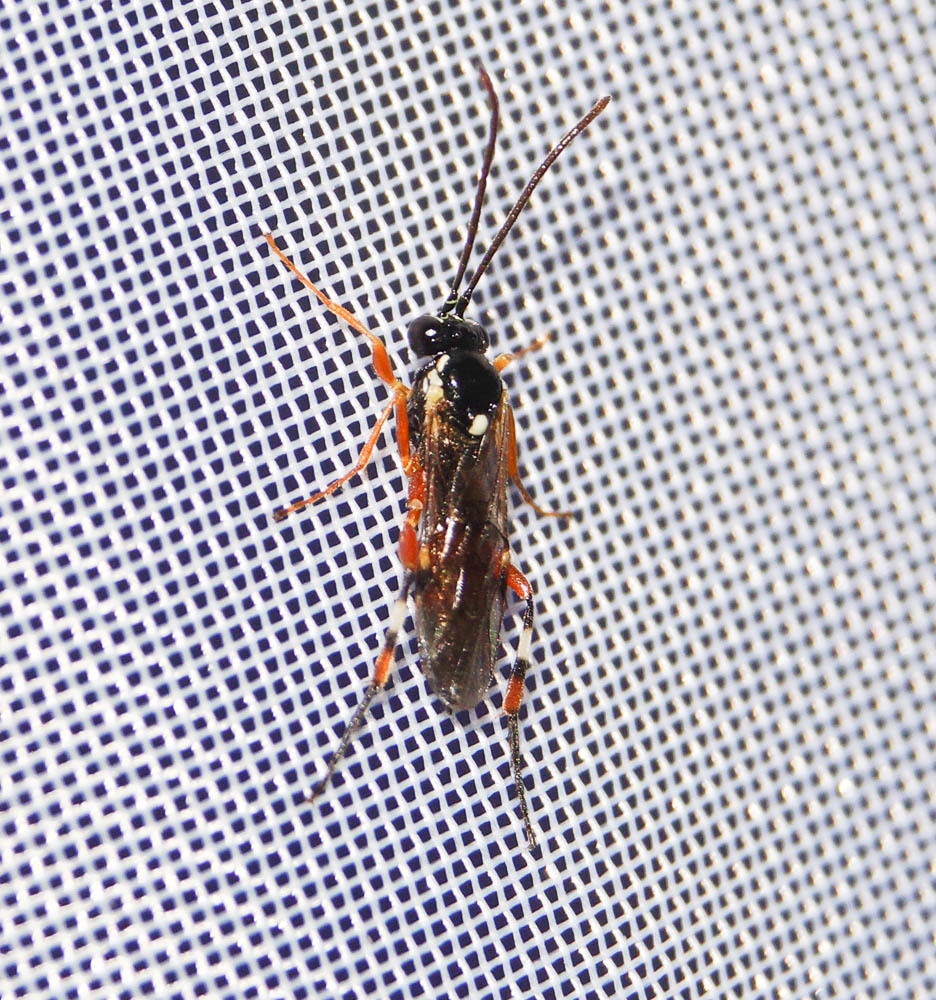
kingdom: Animalia
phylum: Arthropoda
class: Insecta
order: Hymenoptera
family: Ichneumonidae
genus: Diplazon
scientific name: Diplazon laetatorius
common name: Parasitoid wasp
